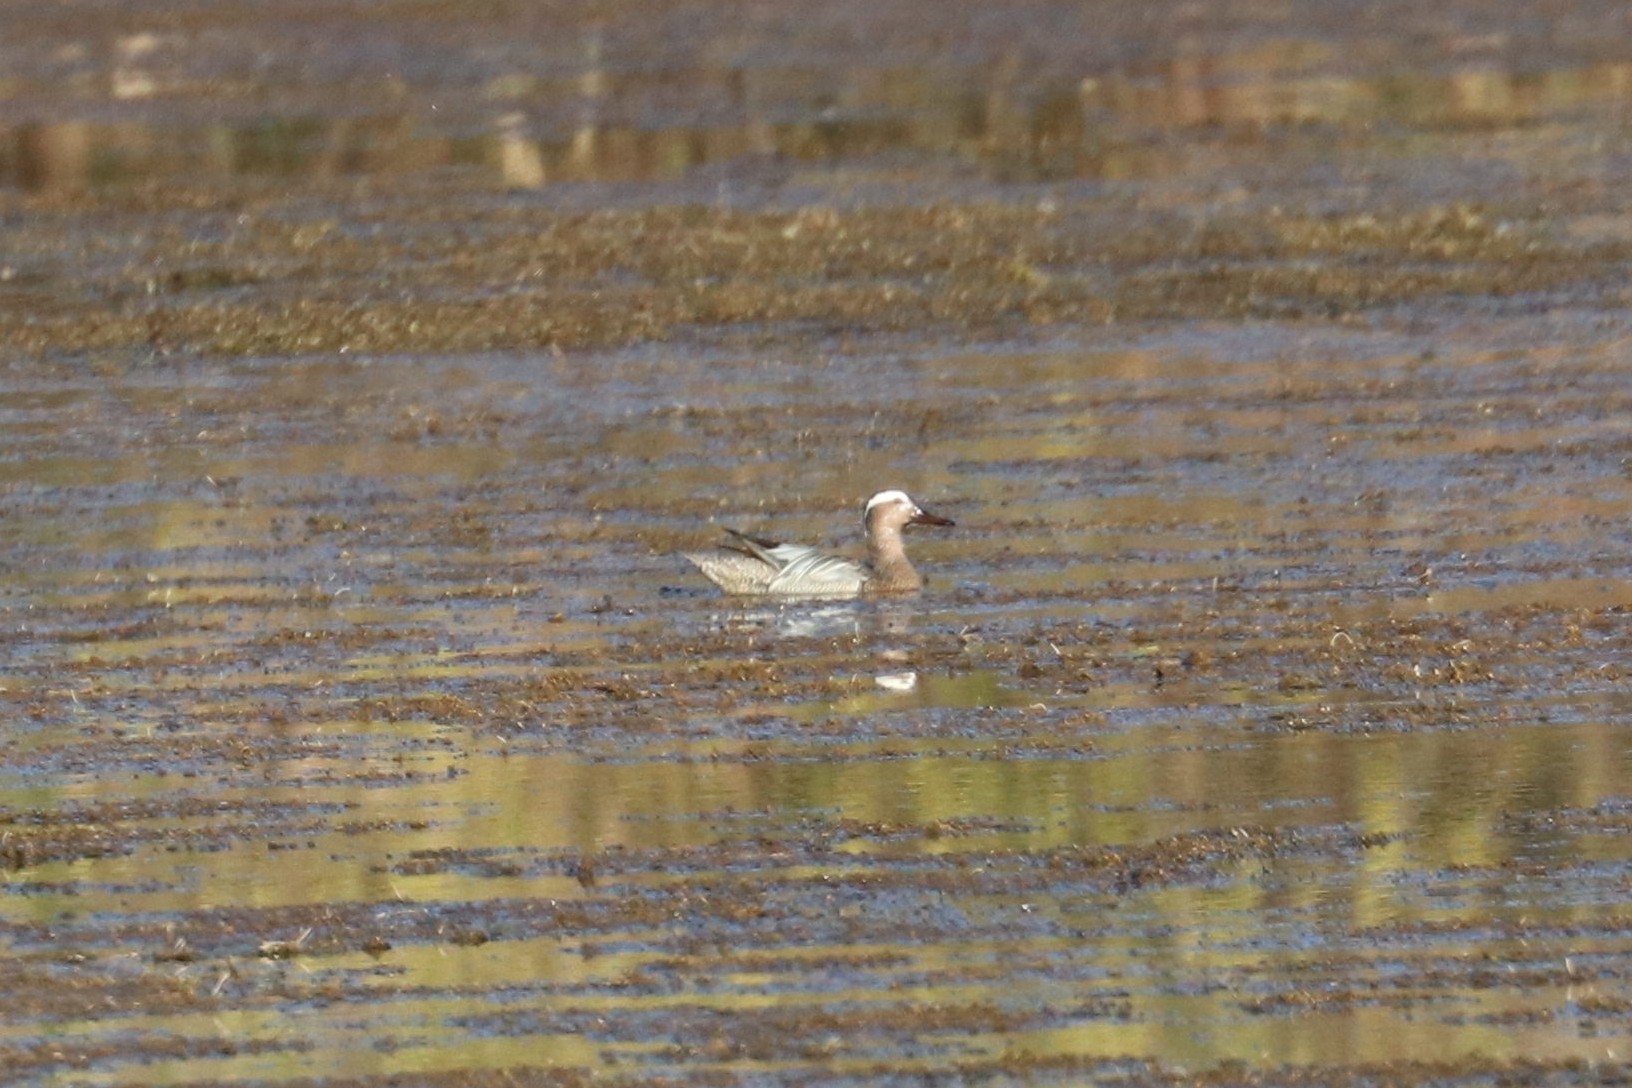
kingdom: Animalia
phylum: Chordata
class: Aves
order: Anseriformes
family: Anatidae
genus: Spatula
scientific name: Spatula querquedula
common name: Garganey
